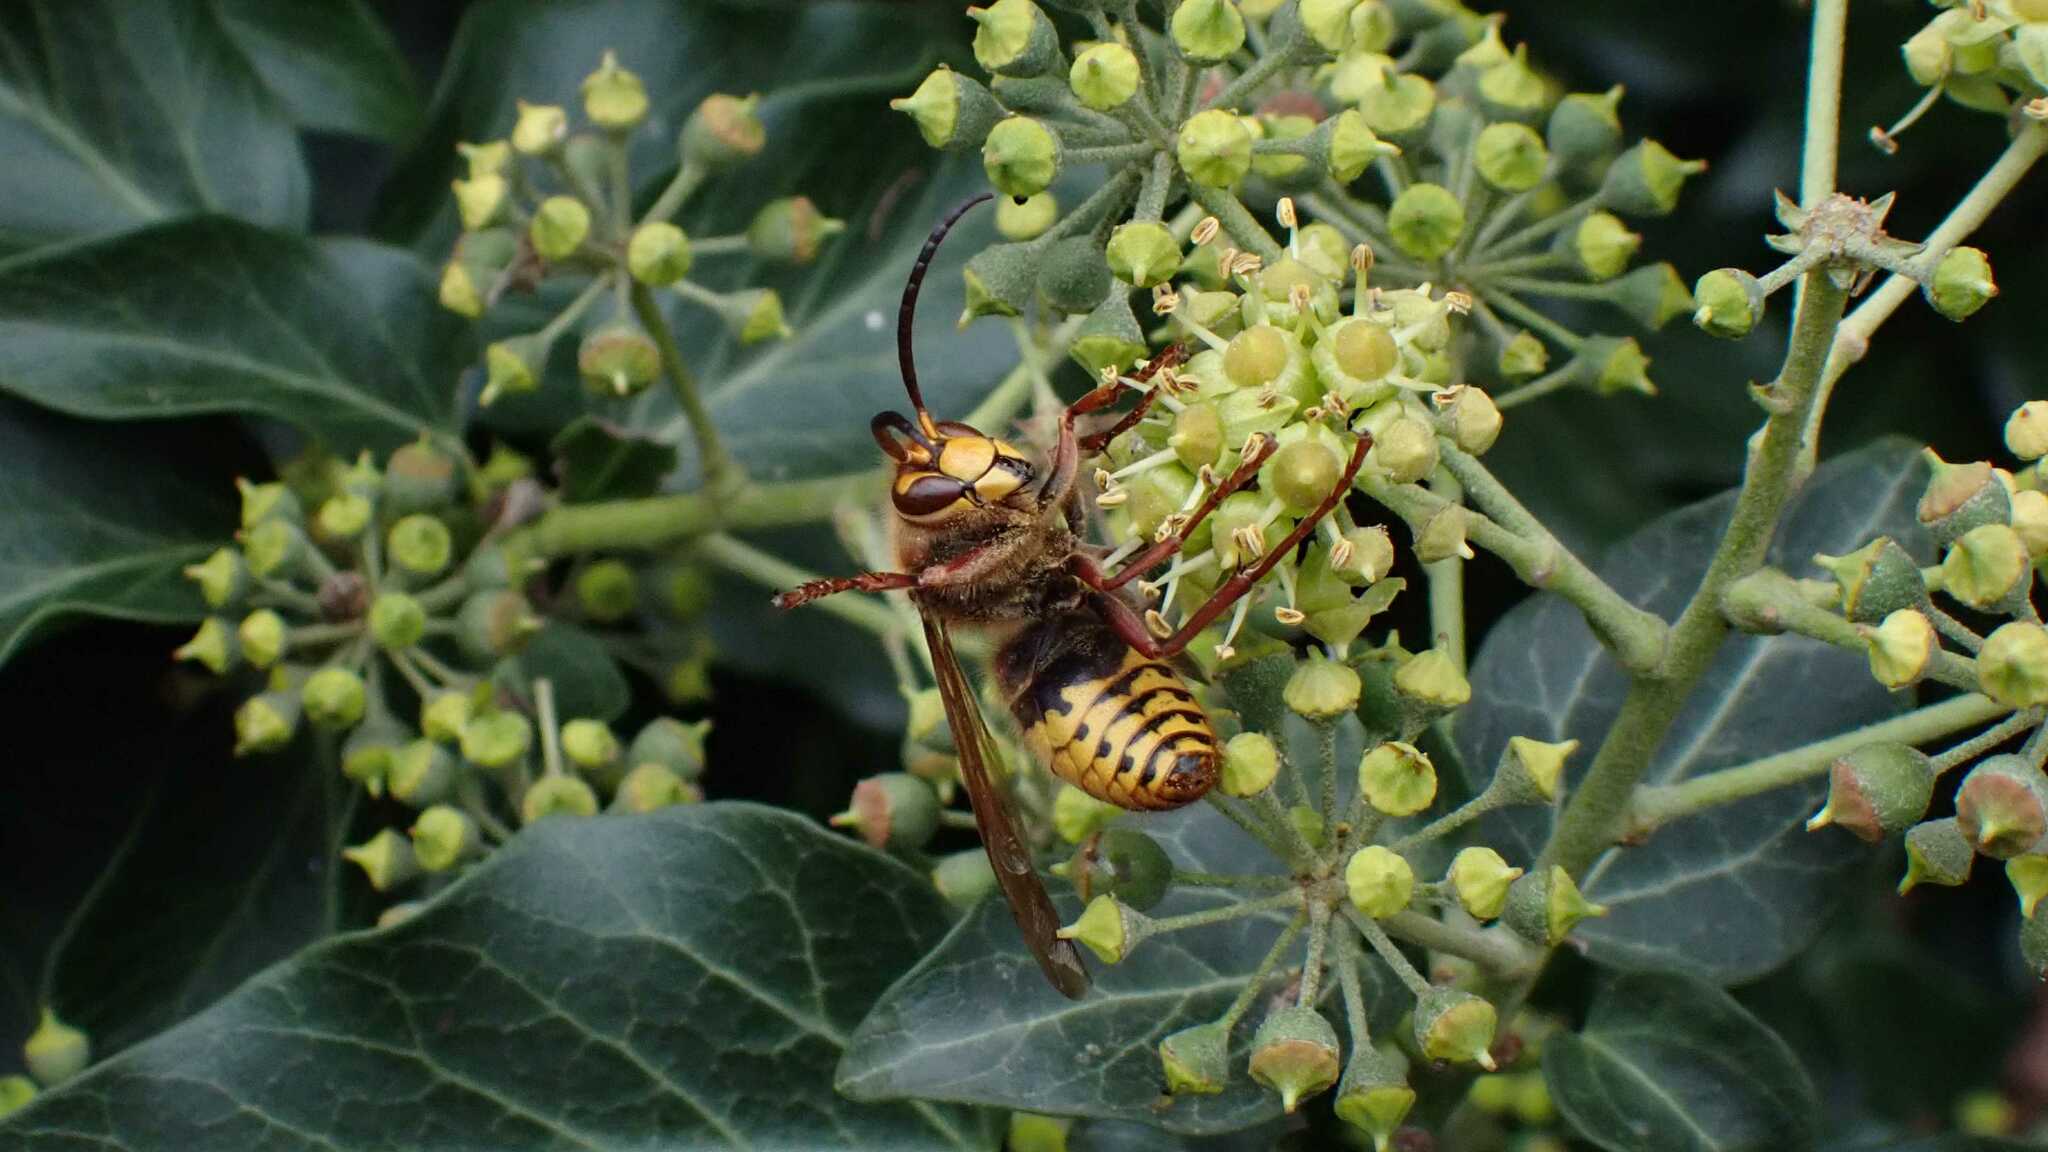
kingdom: Animalia
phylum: Arthropoda
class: Insecta
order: Hymenoptera
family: Vespidae
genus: Vespa
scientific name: Vespa crabro
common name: Hornet
